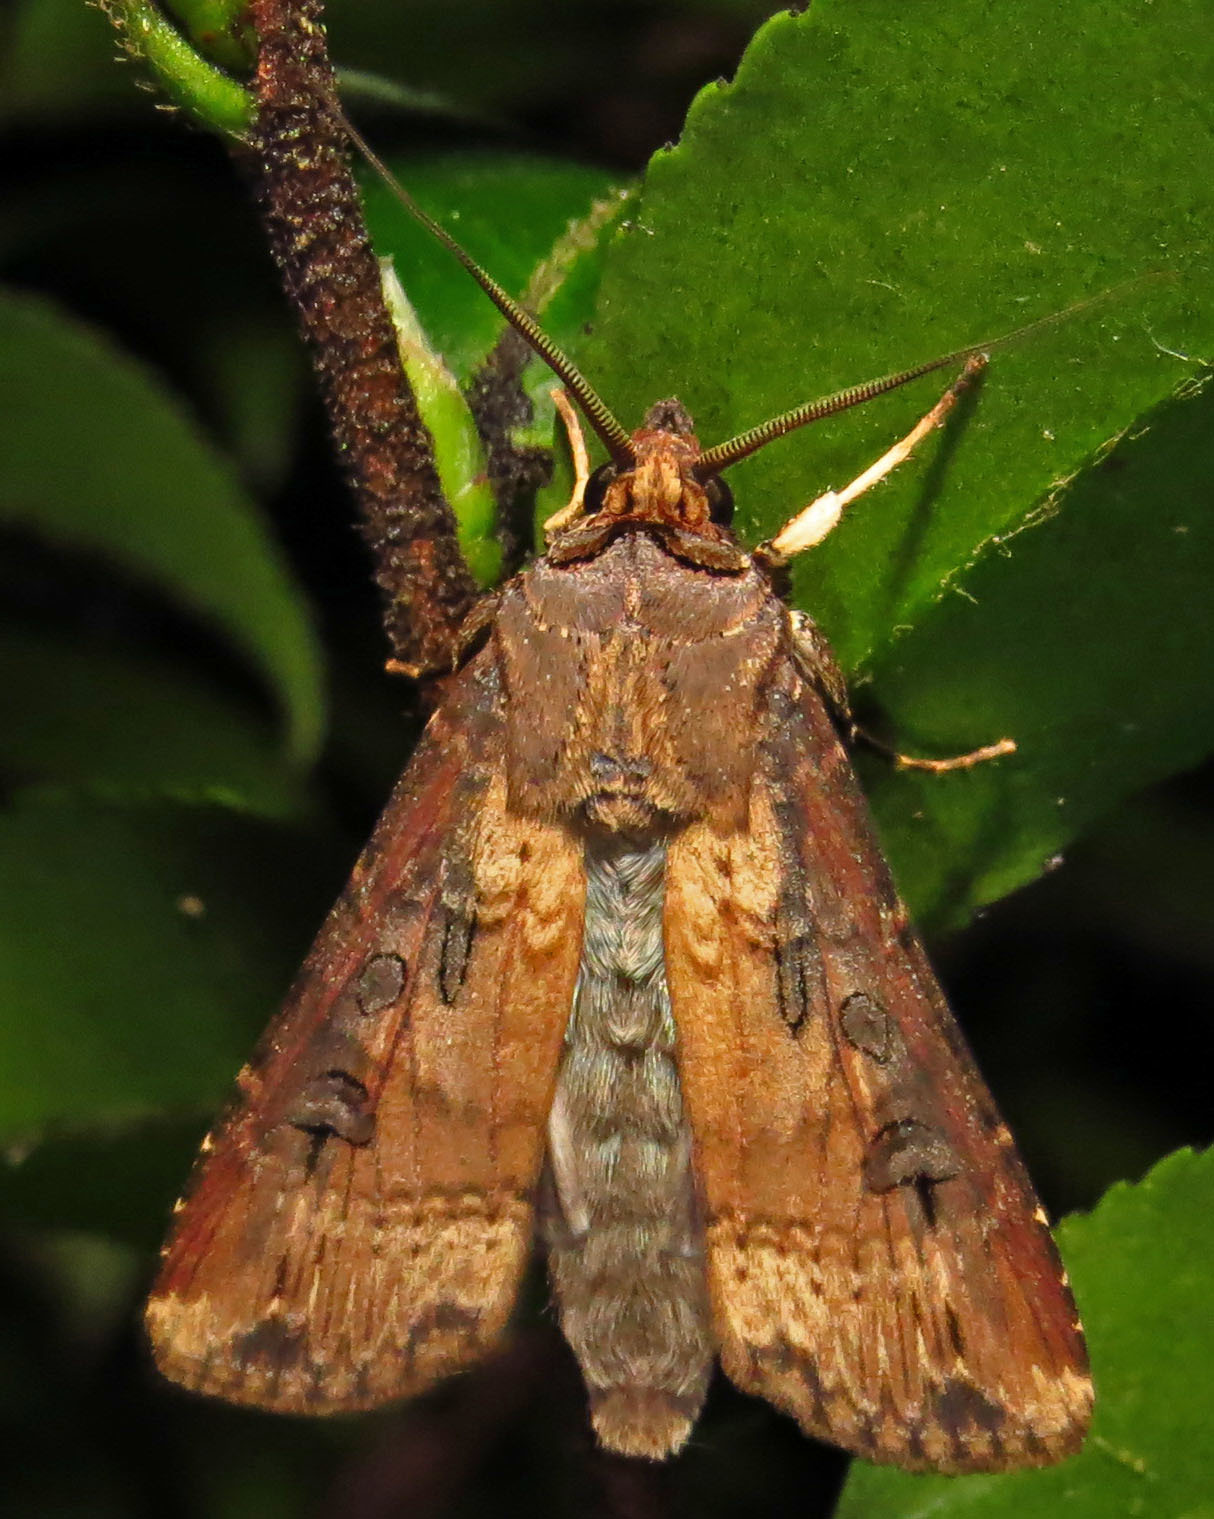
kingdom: Animalia
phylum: Arthropoda
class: Insecta
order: Lepidoptera
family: Noctuidae
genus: Agrotis
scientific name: Agrotis ipsilon
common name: Dark sword-grass
